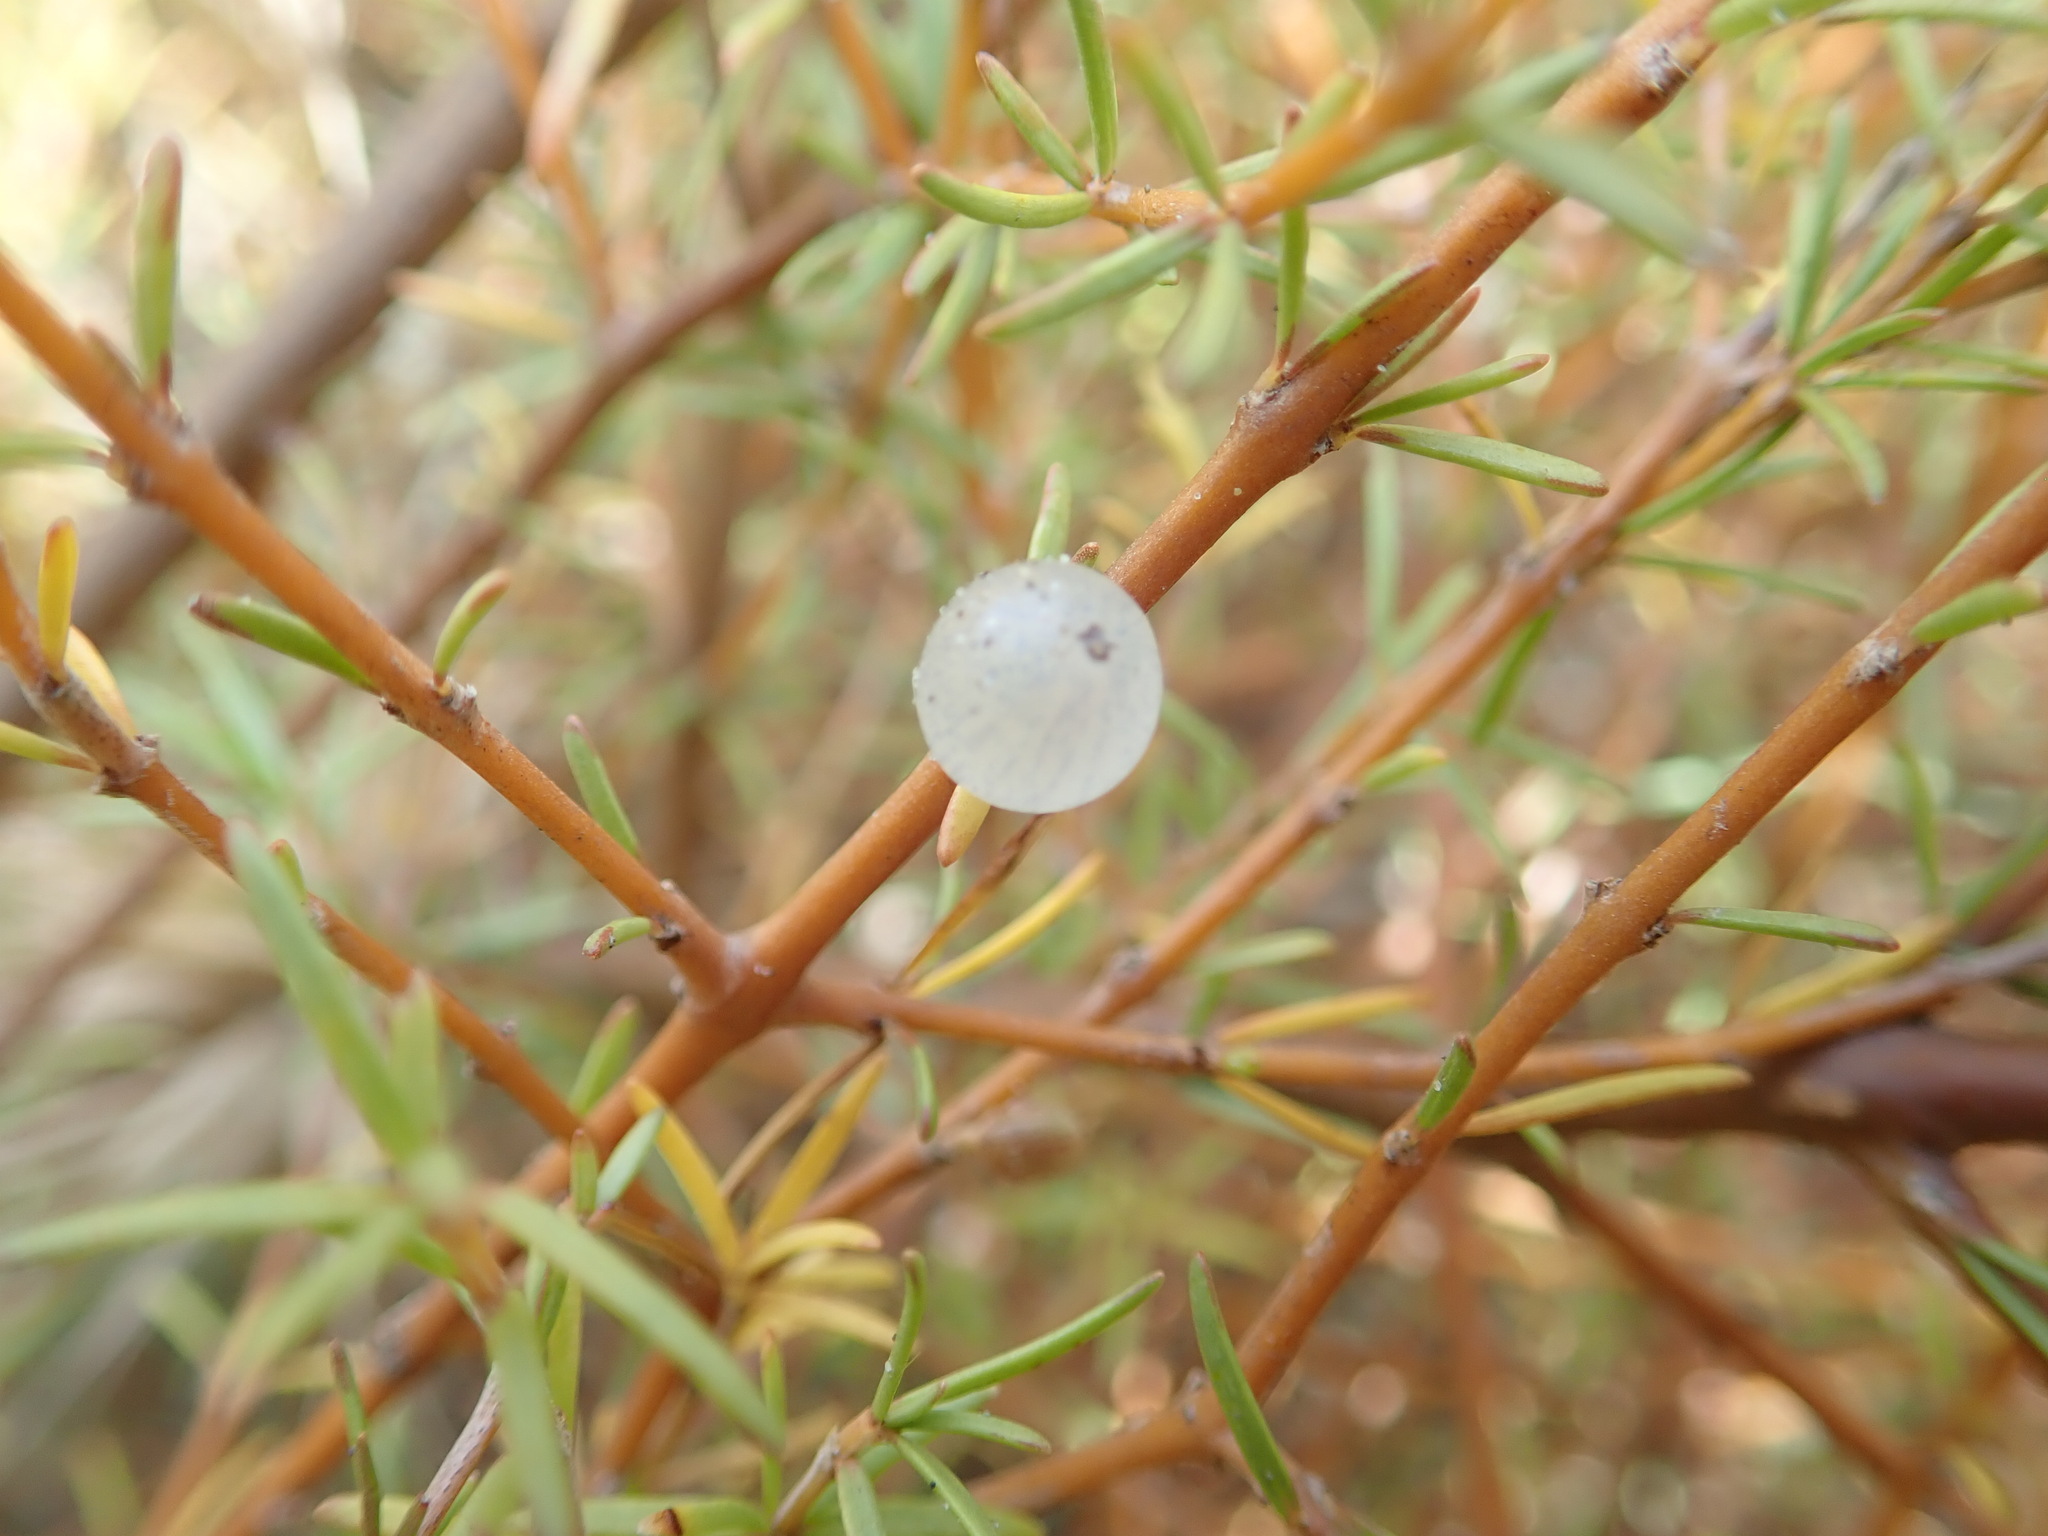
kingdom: Plantae
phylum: Tracheophyta
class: Magnoliopsida
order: Gentianales
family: Rubiaceae
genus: Coprosma
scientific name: Coprosma acerosa
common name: Sand coprosma
